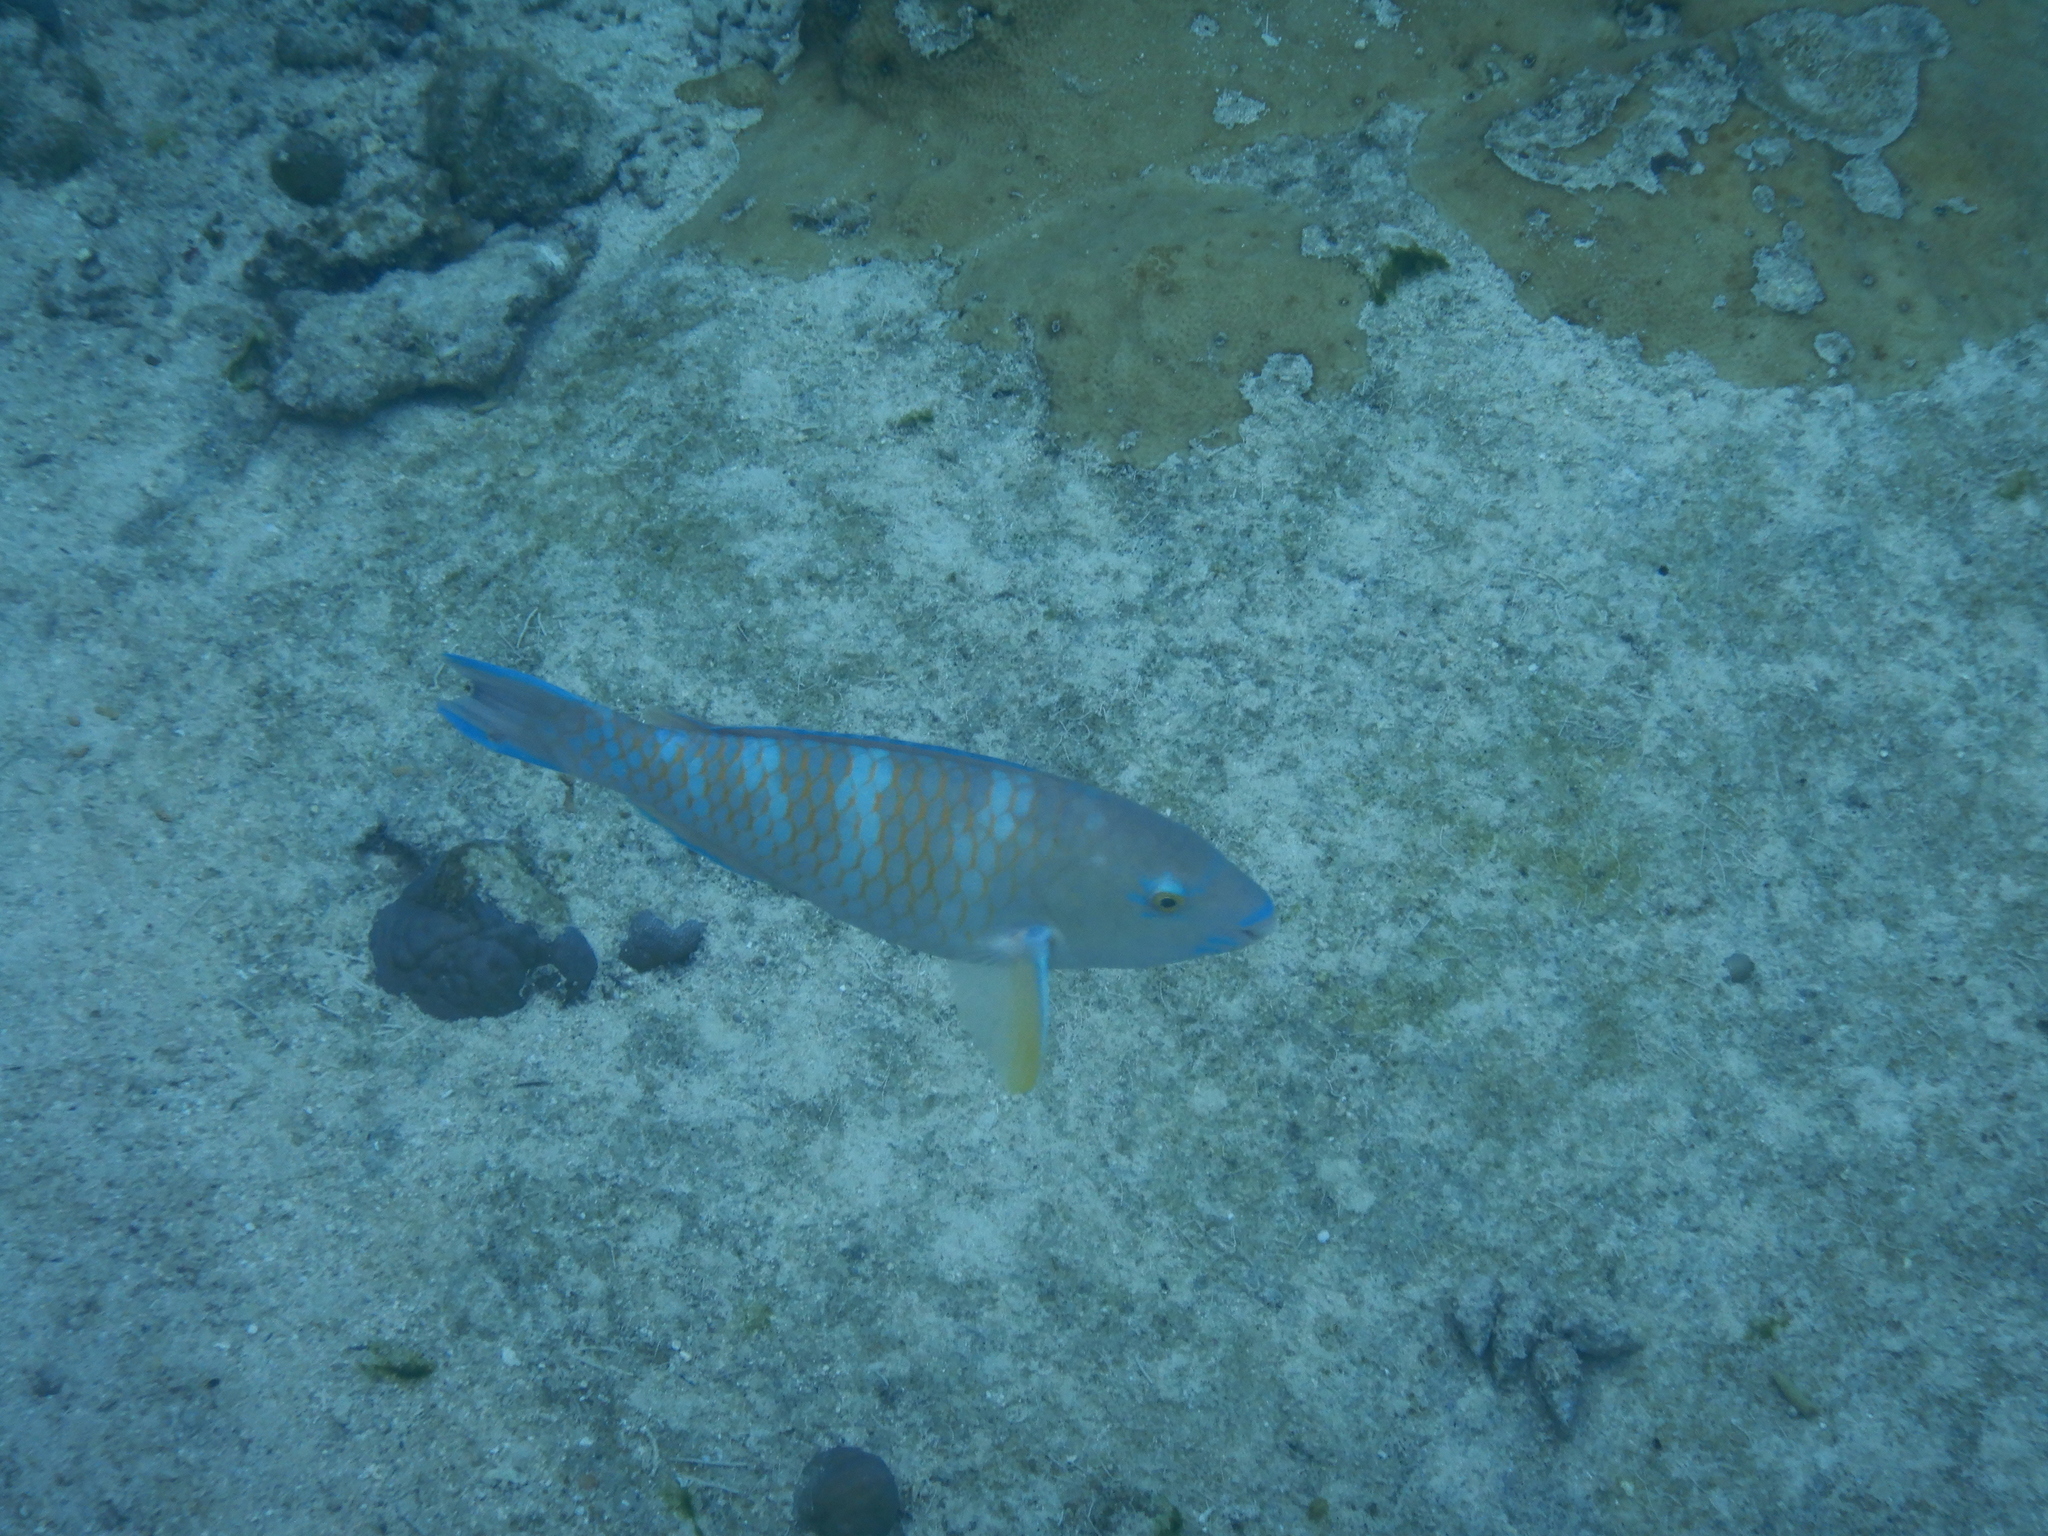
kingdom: Animalia
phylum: Chordata
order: Perciformes
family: Scaridae
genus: Scarus
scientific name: Scarus ghobban
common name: Blue-barred parrotfish
